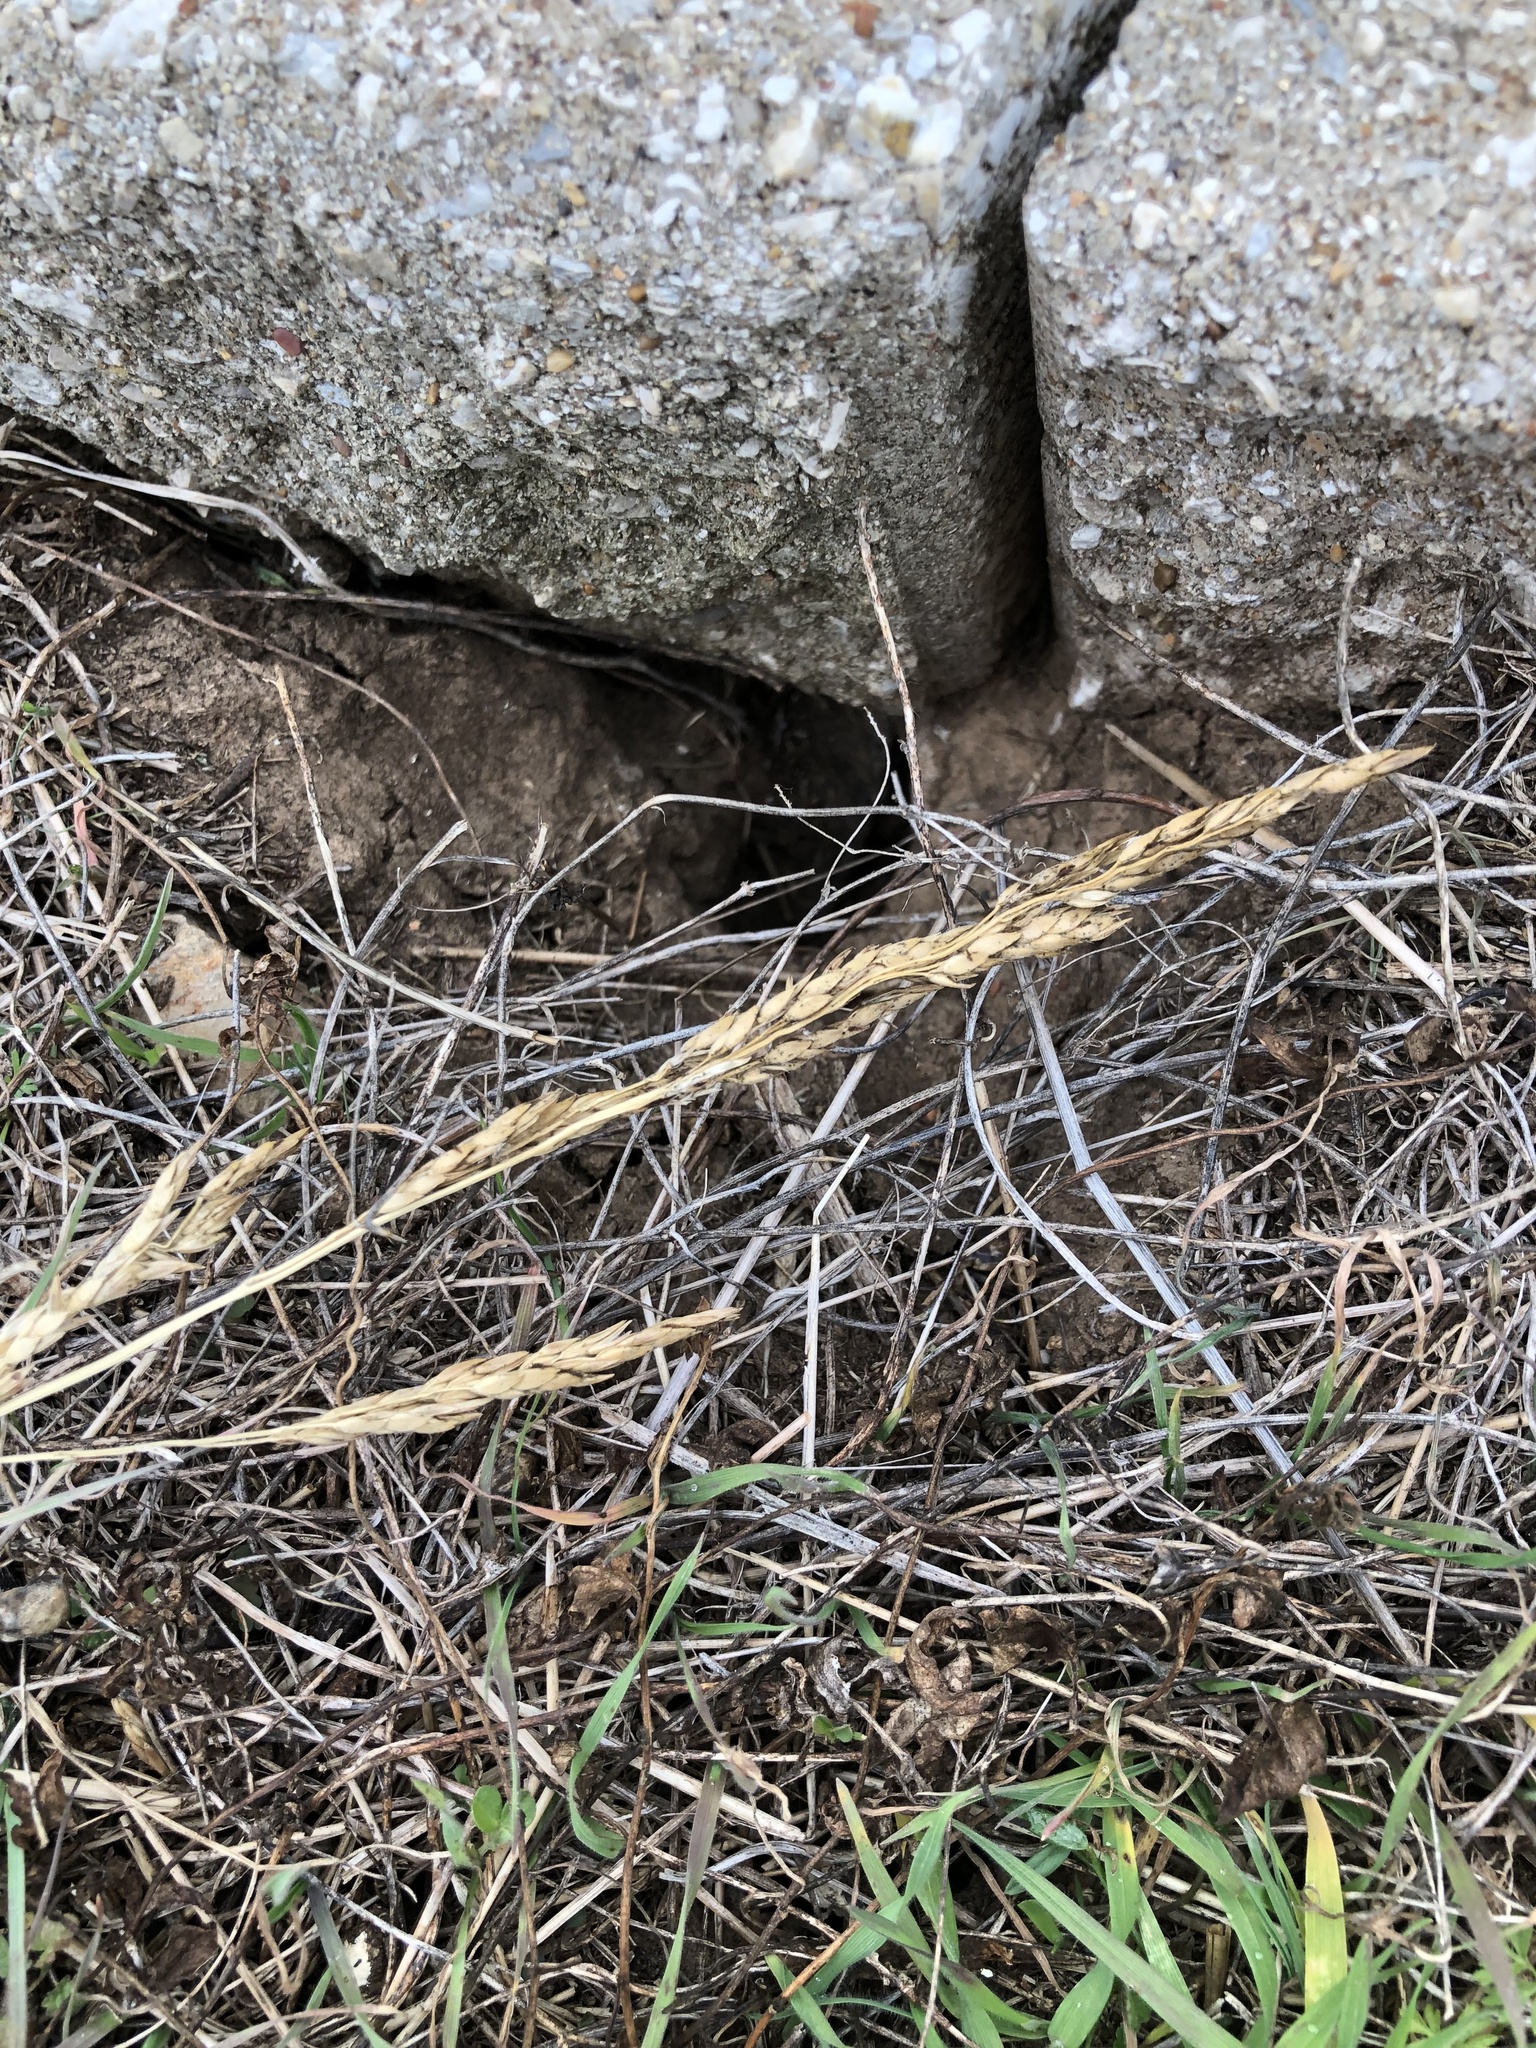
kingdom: Plantae
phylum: Tracheophyta
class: Liliopsida
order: Poales
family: Poaceae
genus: Sorghum
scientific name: Sorghum halepense
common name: Johnson-grass
